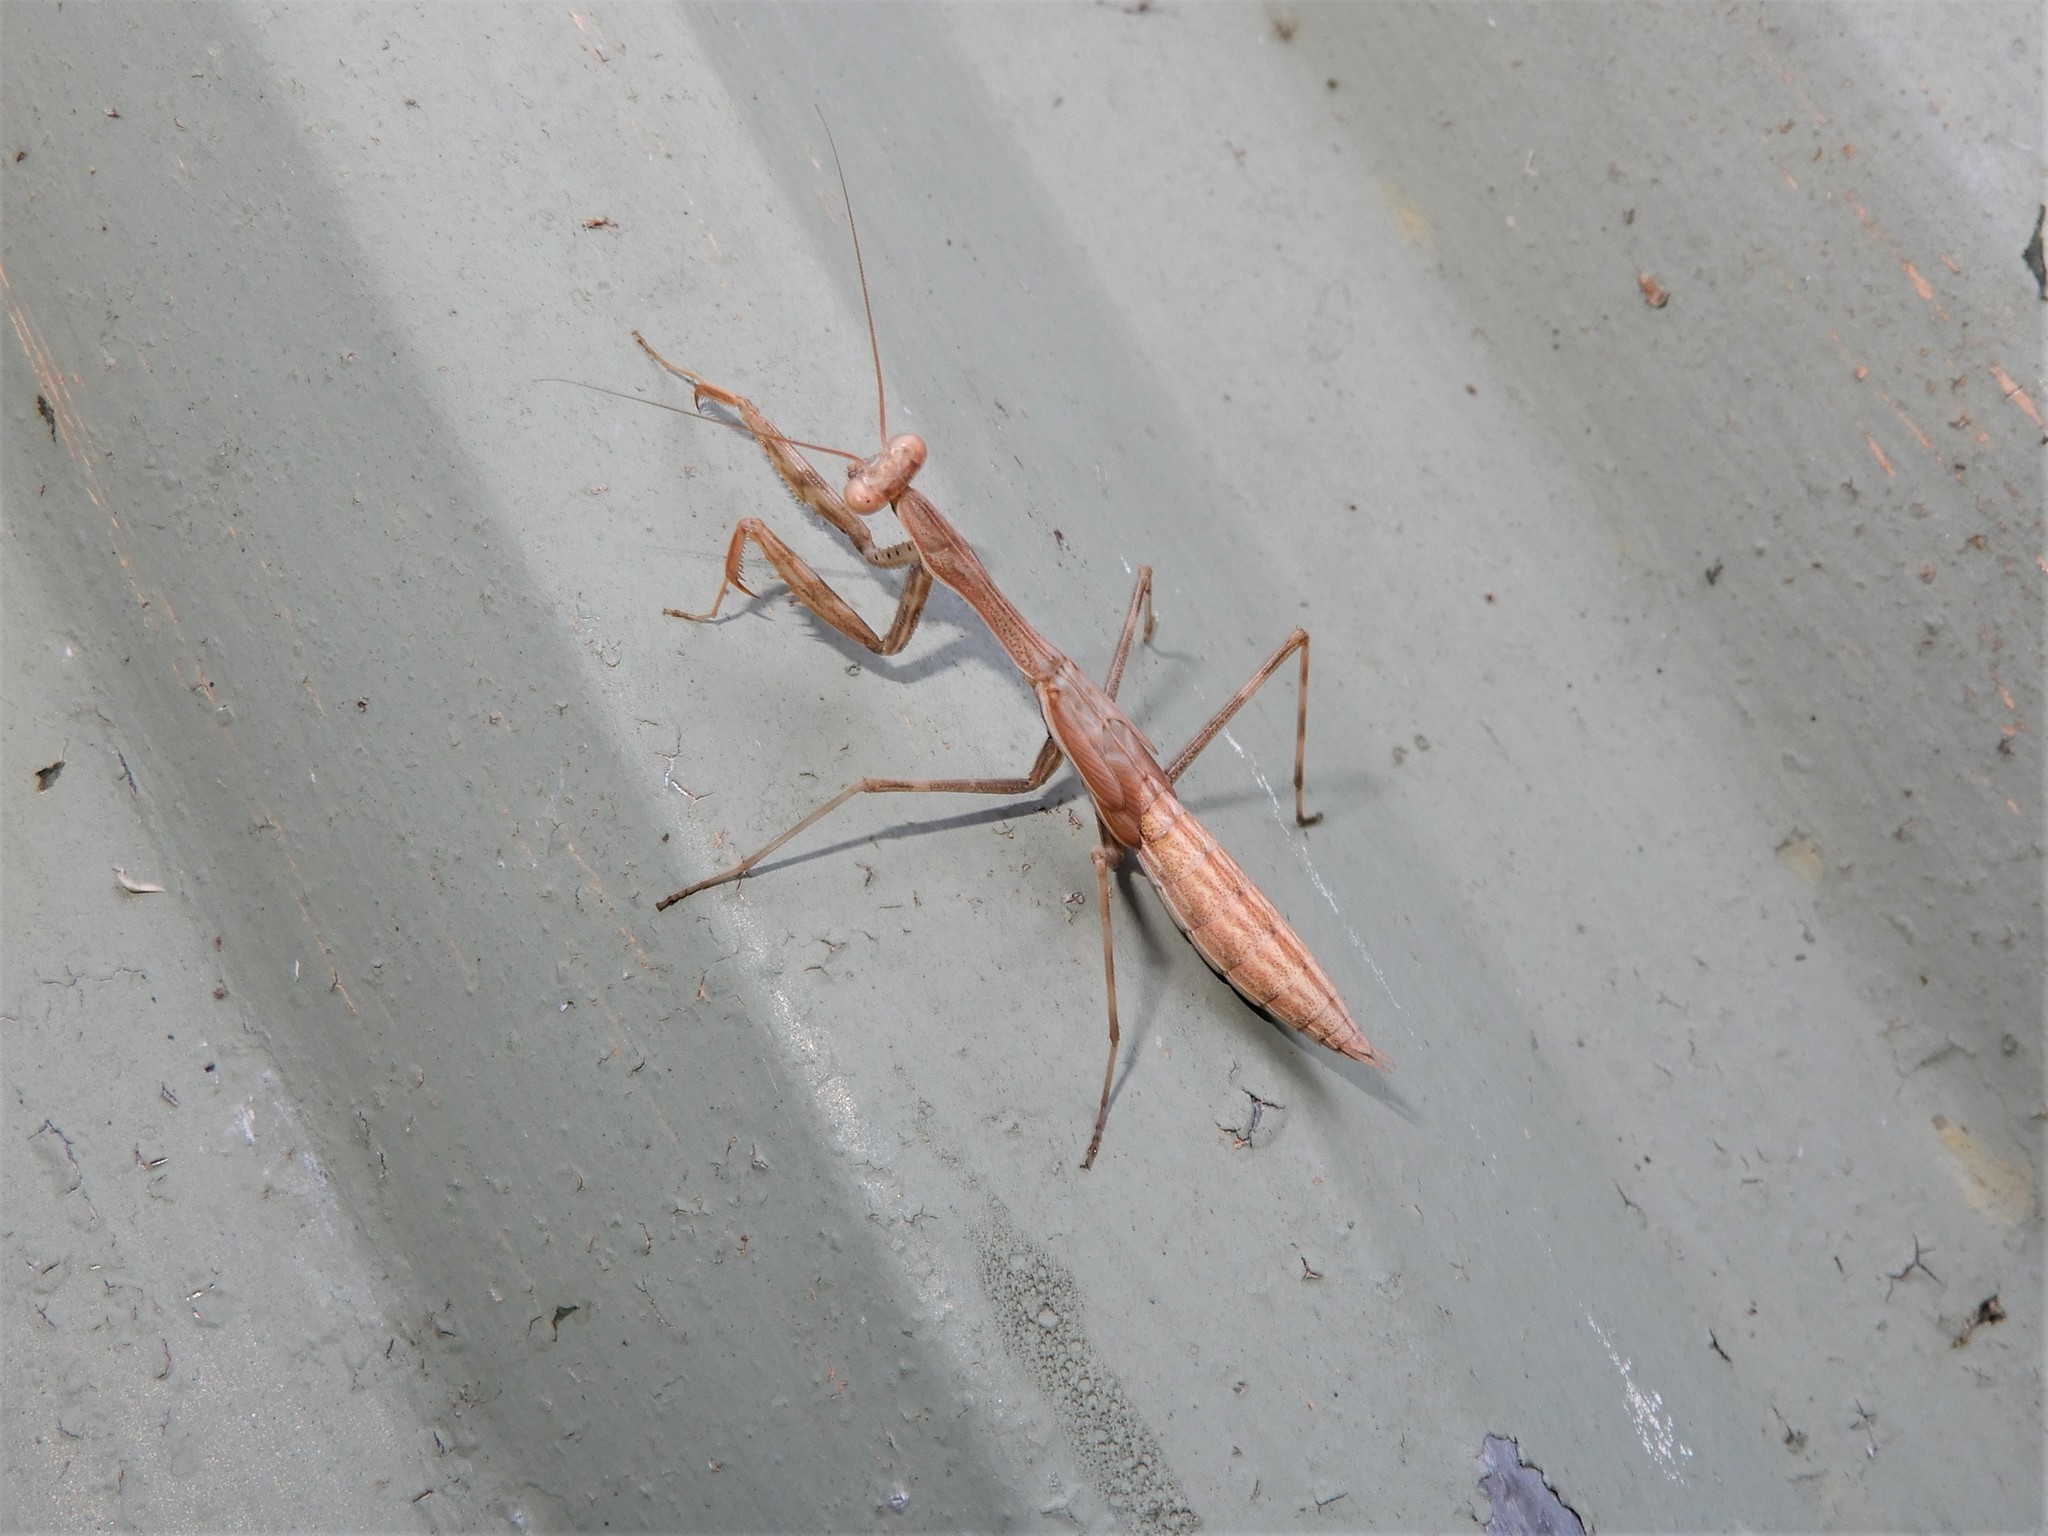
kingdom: Animalia
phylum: Arthropoda
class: Insecta
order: Mantodea
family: Miomantidae
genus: Miomantis
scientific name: Miomantis caffra
